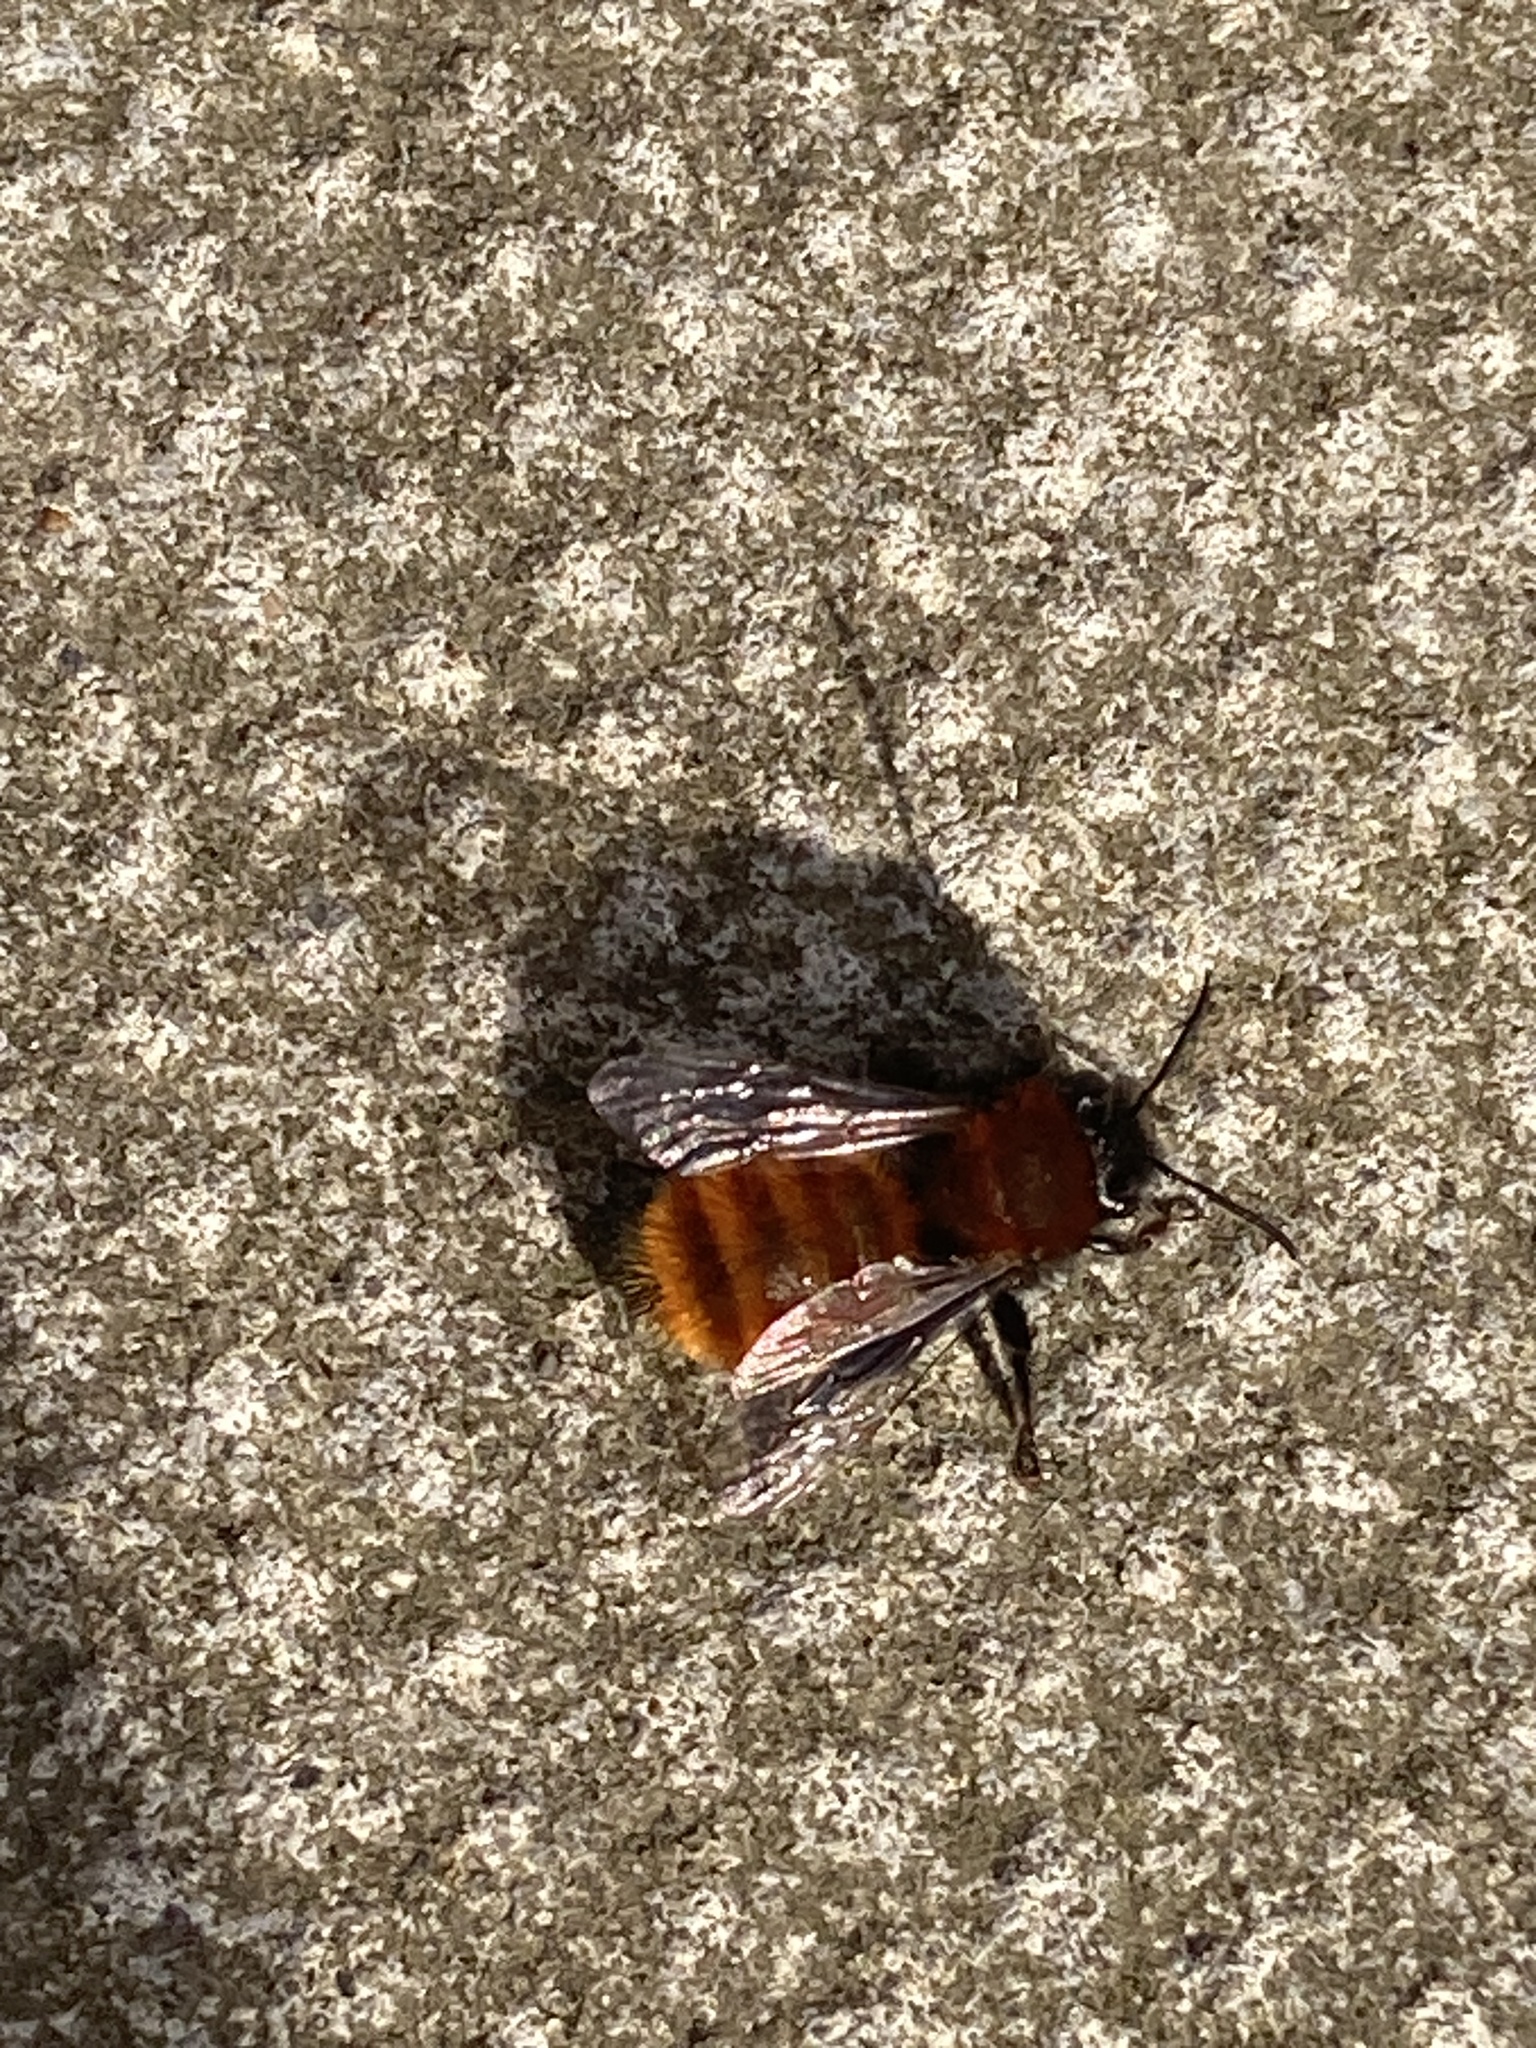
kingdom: Animalia
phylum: Arthropoda
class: Insecta
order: Hymenoptera
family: Andrenidae
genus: Andrena
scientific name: Andrena fulva
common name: Tawny mining bee
